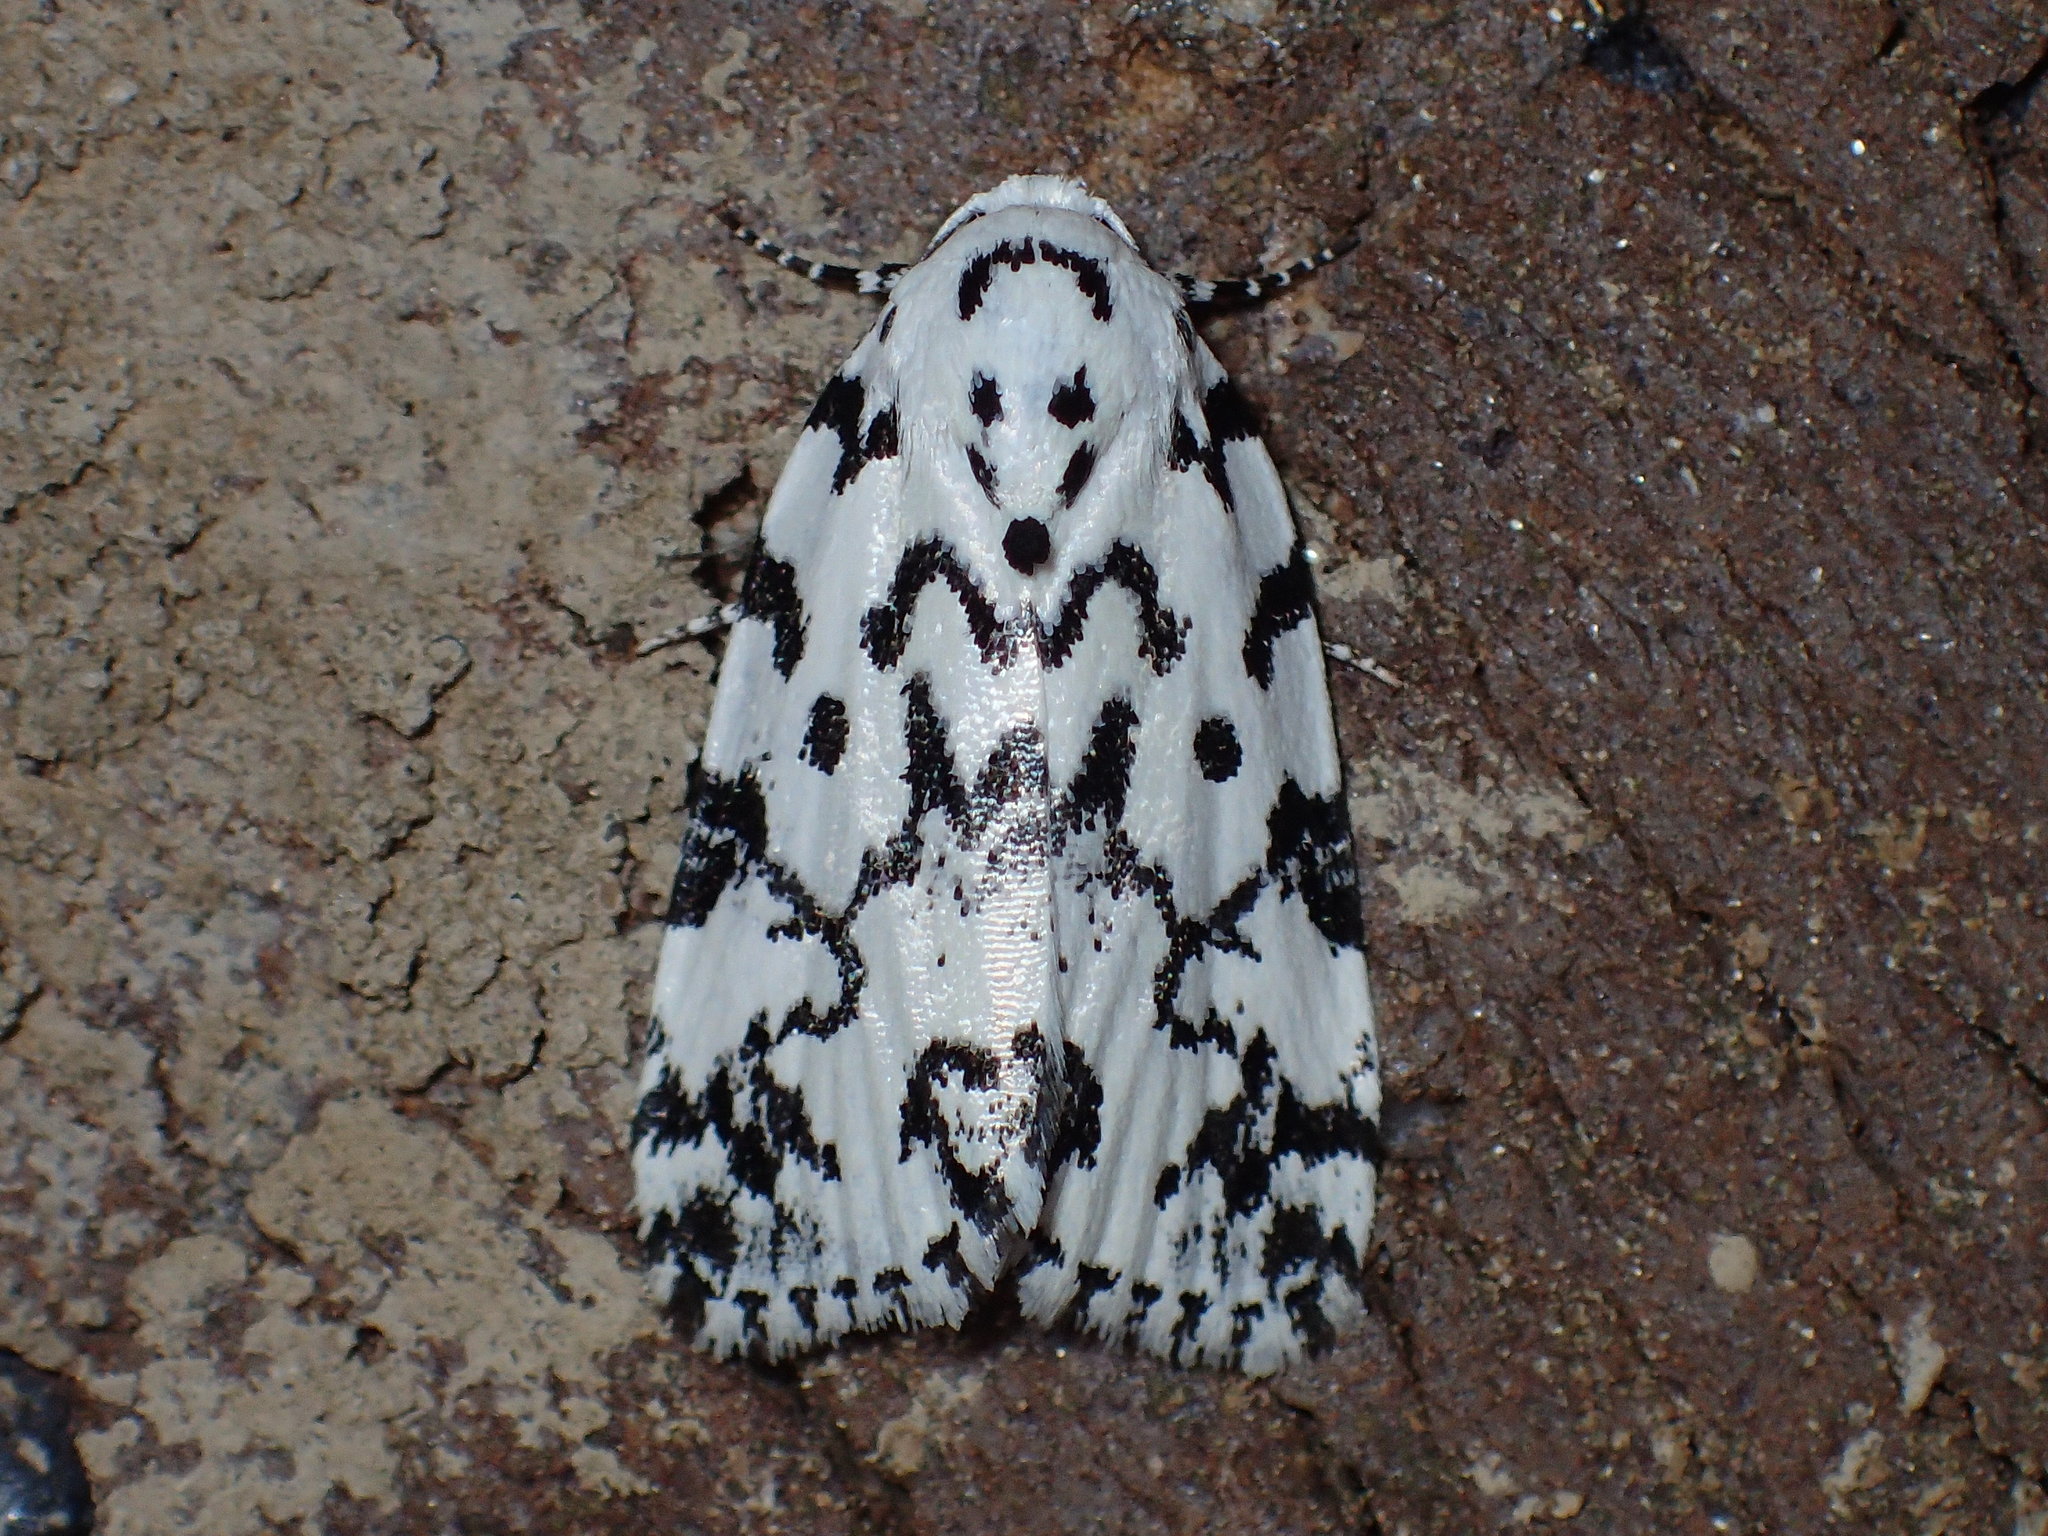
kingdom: Animalia
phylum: Arthropoda
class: Insecta
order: Lepidoptera
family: Noctuidae
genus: Polygrammate
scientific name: Polygrammate hebraeicum
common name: Hebrew moth
